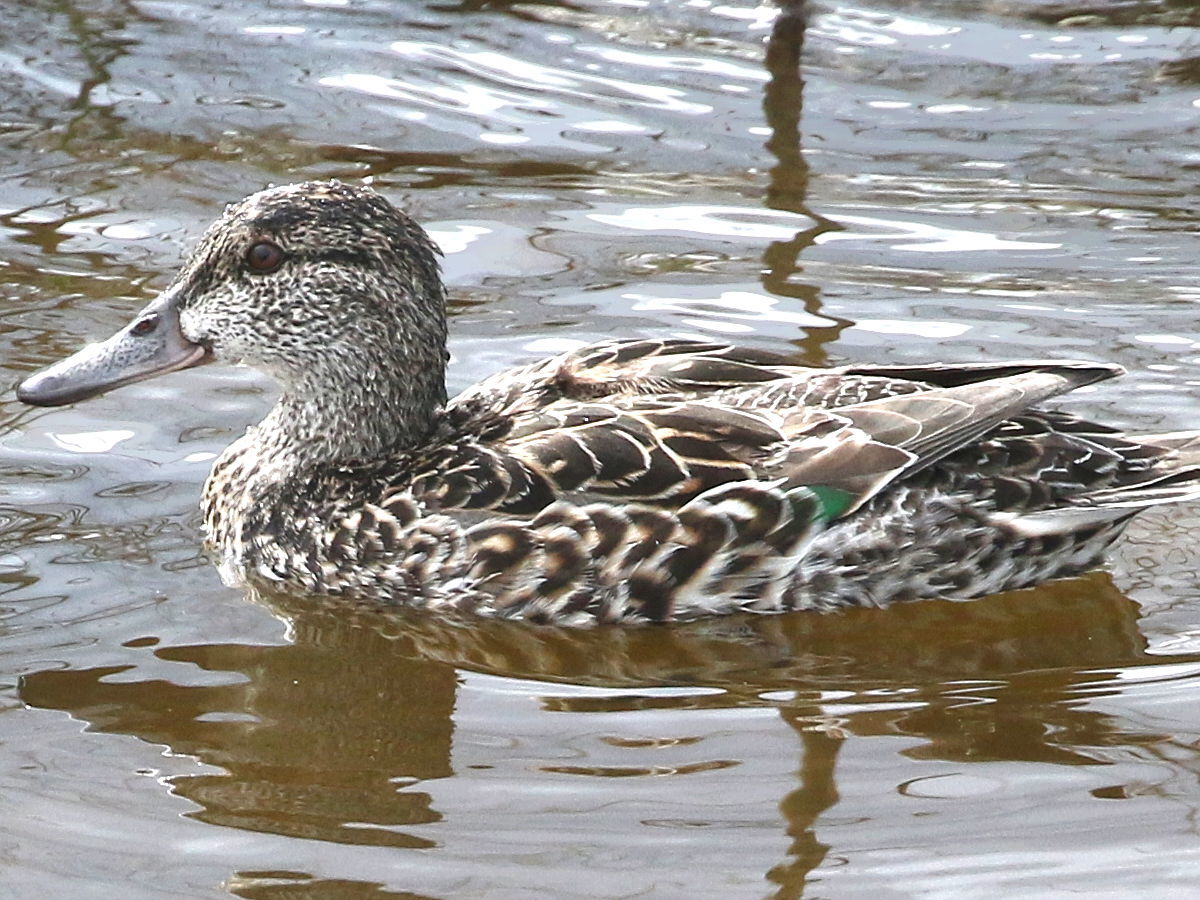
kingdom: Animalia
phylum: Chordata
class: Aves
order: Anseriformes
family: Anatidae
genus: Anas
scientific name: Anas crecca
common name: Eurasian teal
